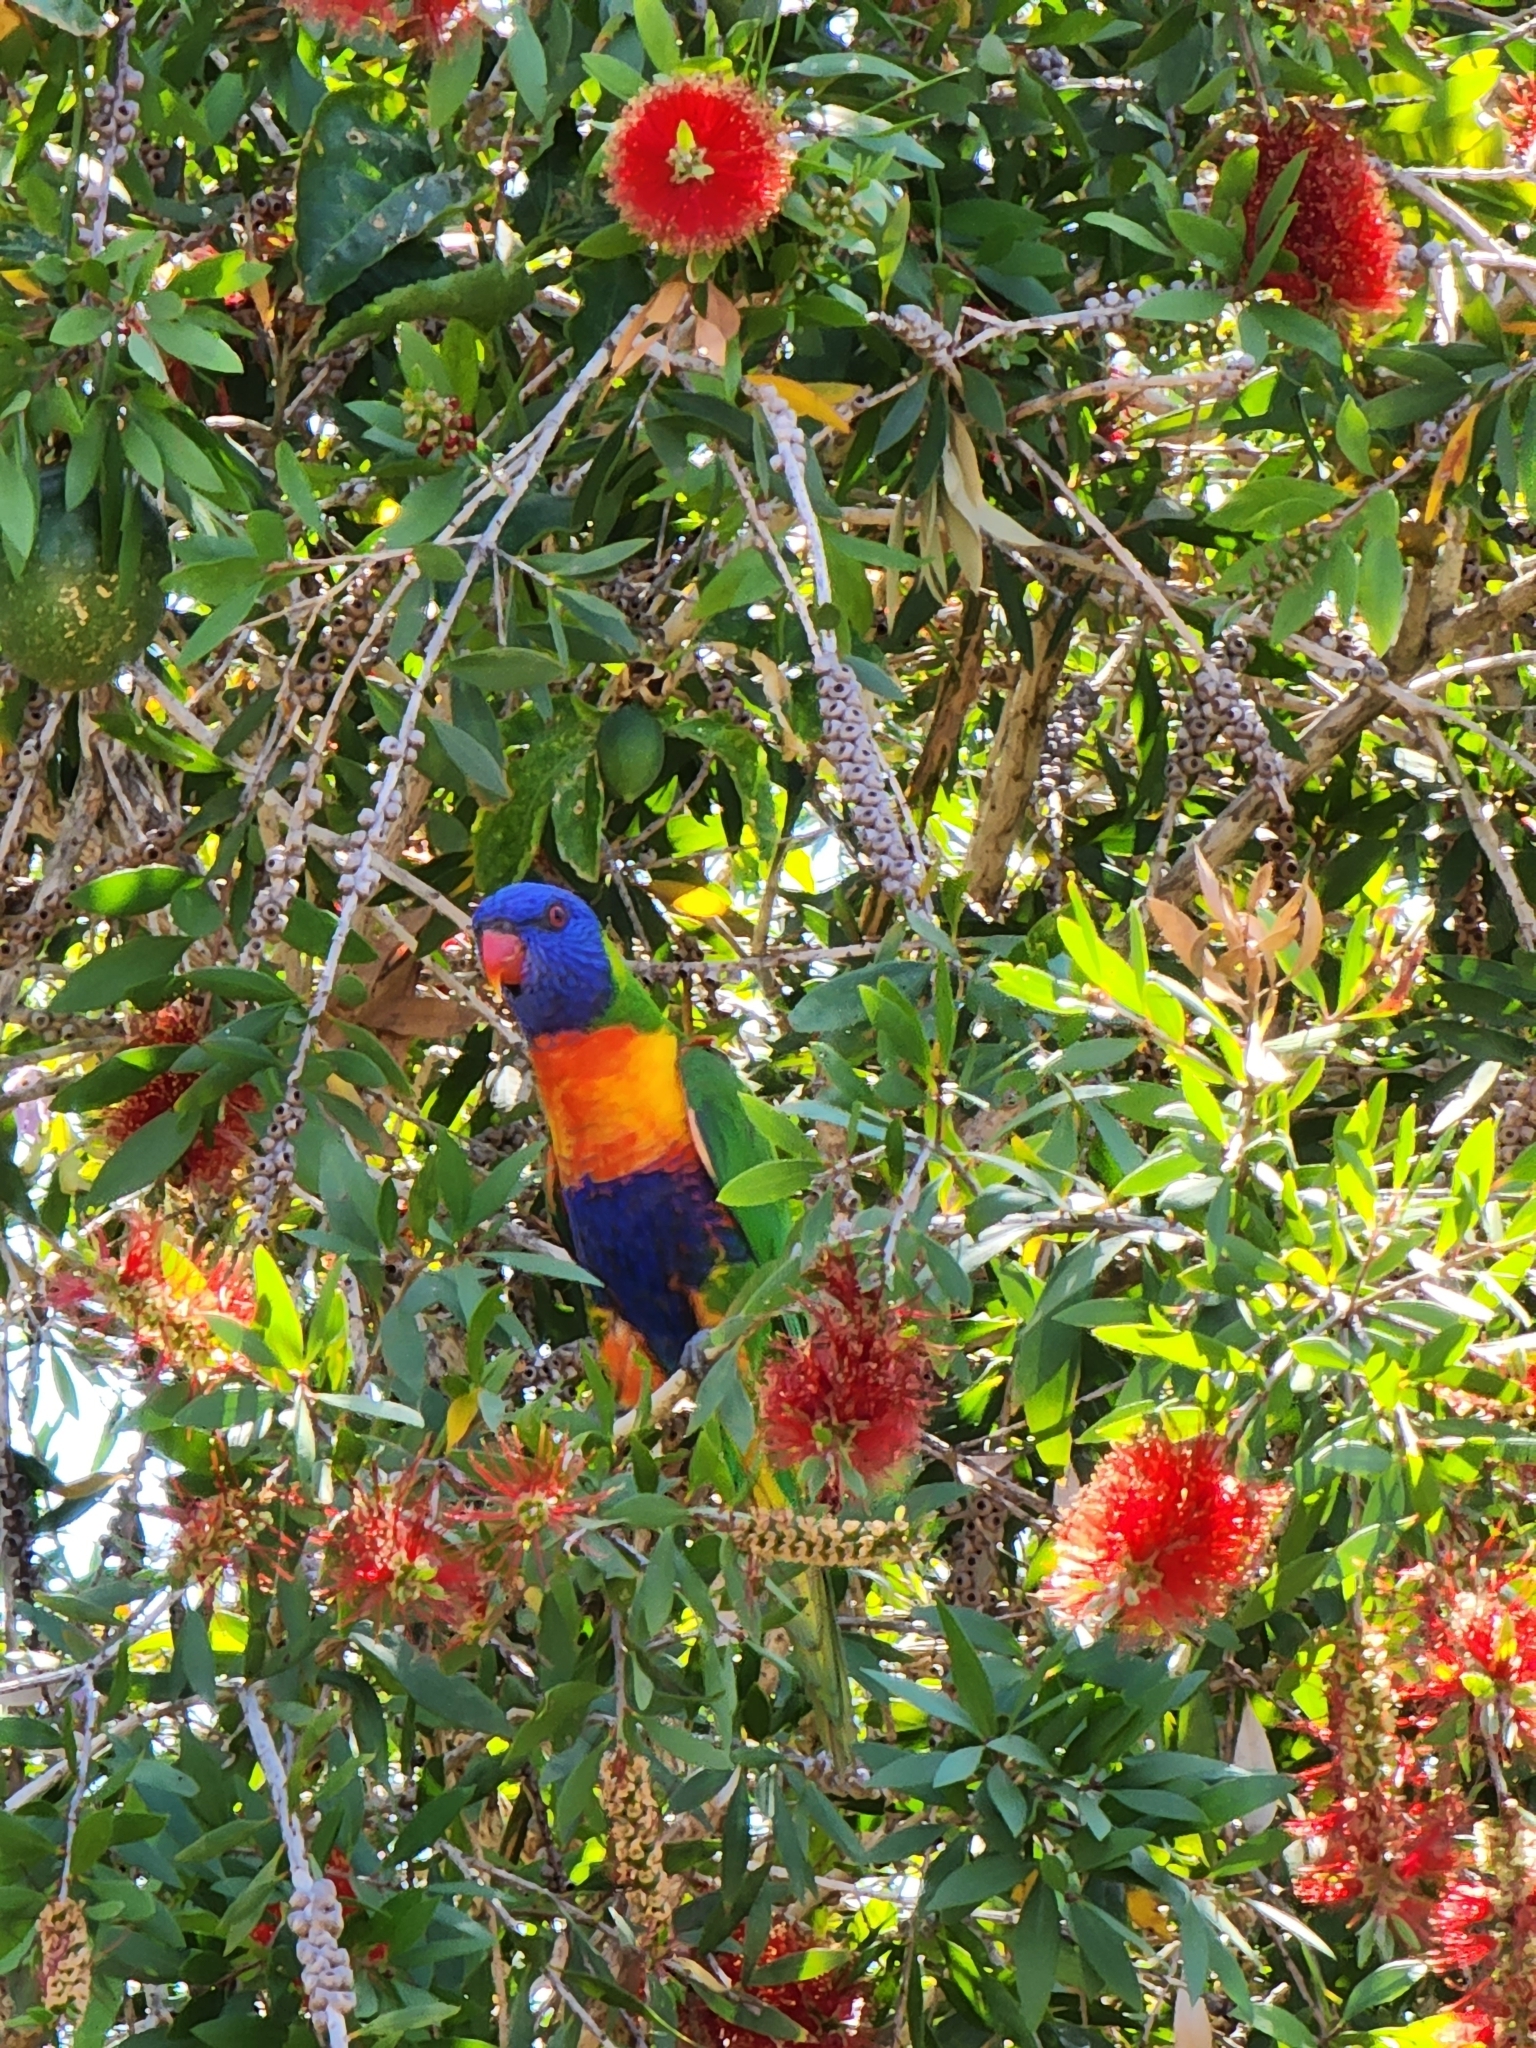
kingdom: Animalia
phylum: Chordata
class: Aves
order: Psittaciformes
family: Psittacidae
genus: Trichoglossus
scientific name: Trichoglossus haematodus
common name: Coconut lorikeet
